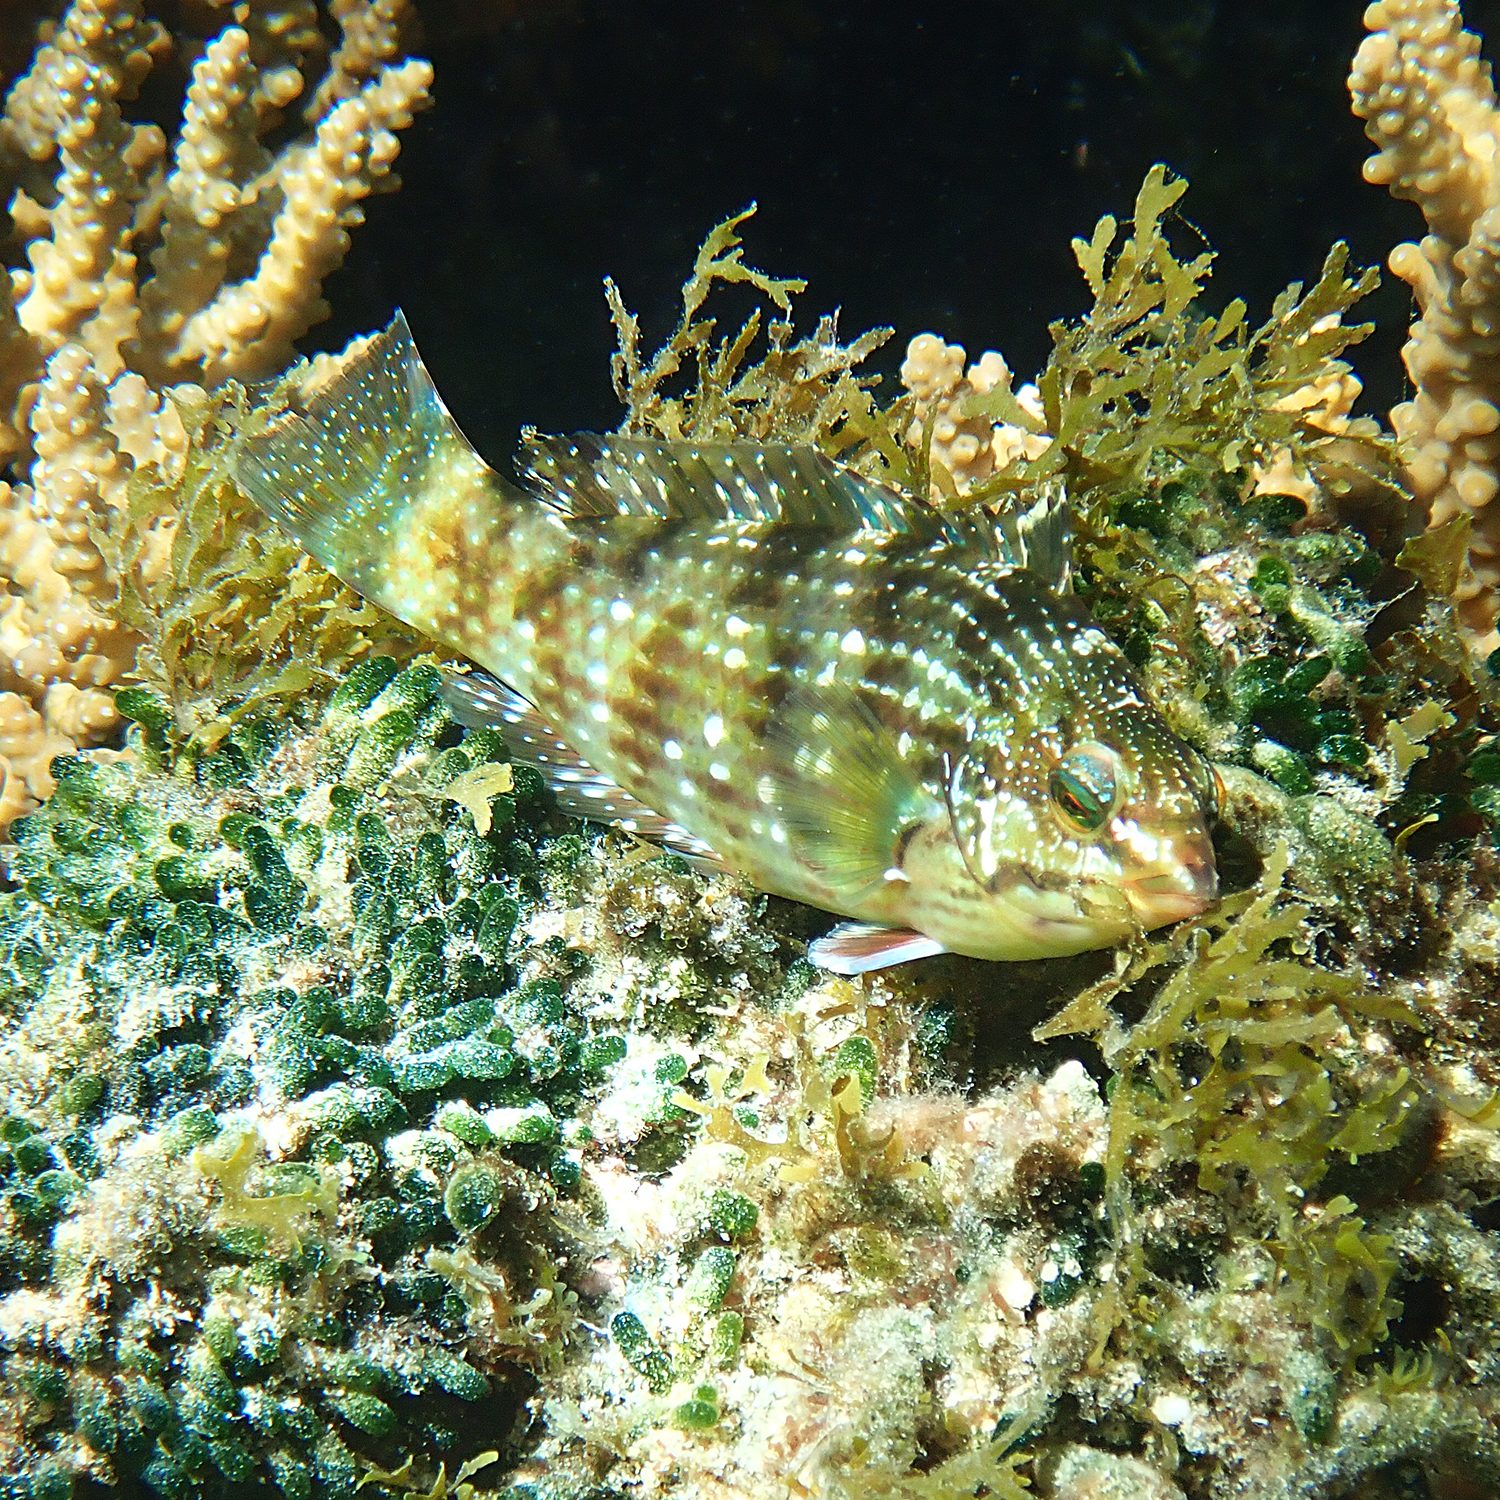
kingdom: Animalia
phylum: Chordata
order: Perciformes
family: Labridae
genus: Notolabrus
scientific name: Notolabrus inscriptus
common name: Green wrasse
